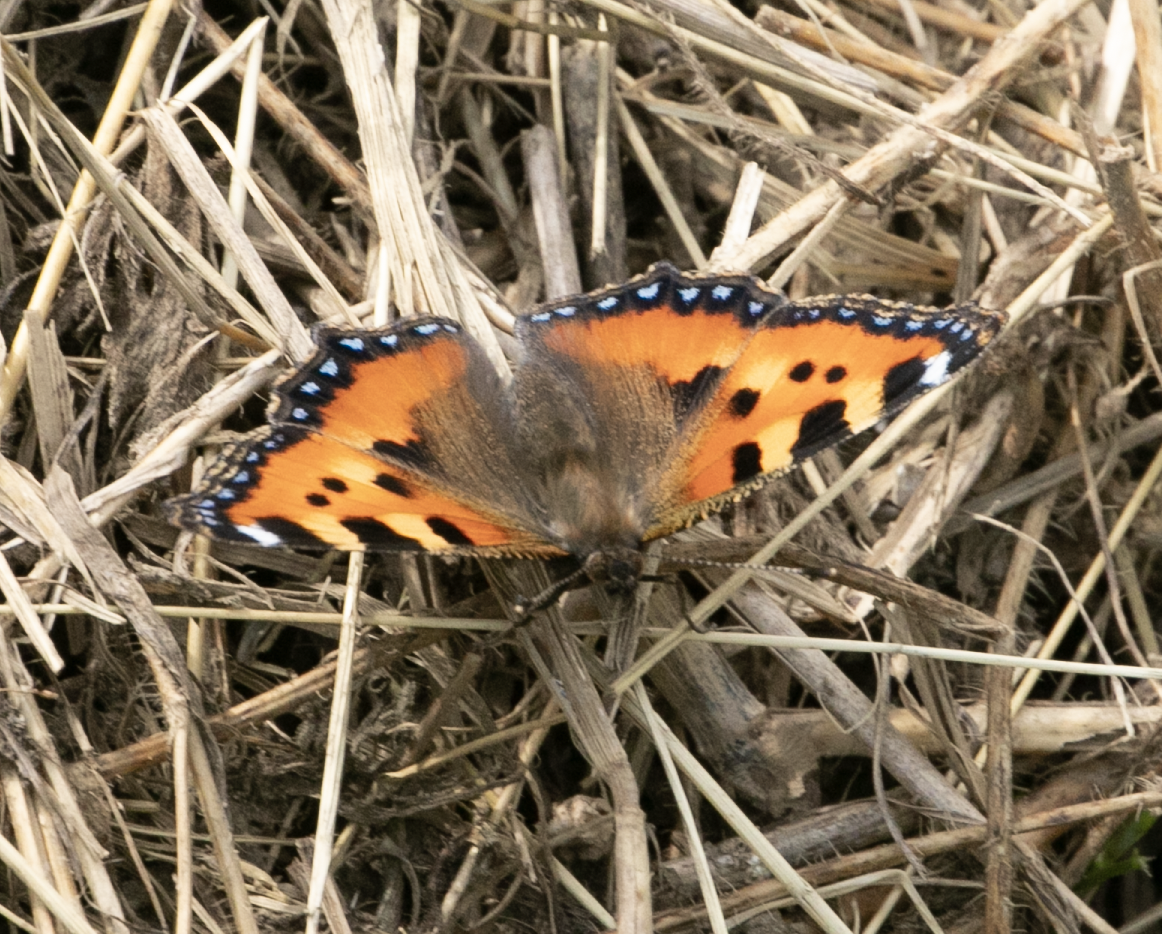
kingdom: Animalia
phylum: Arthropoda
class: Insecta
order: Lepidoptera
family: Nymphalidae
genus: Aglais
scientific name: Aglais urticae
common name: Small tortoiseshell
